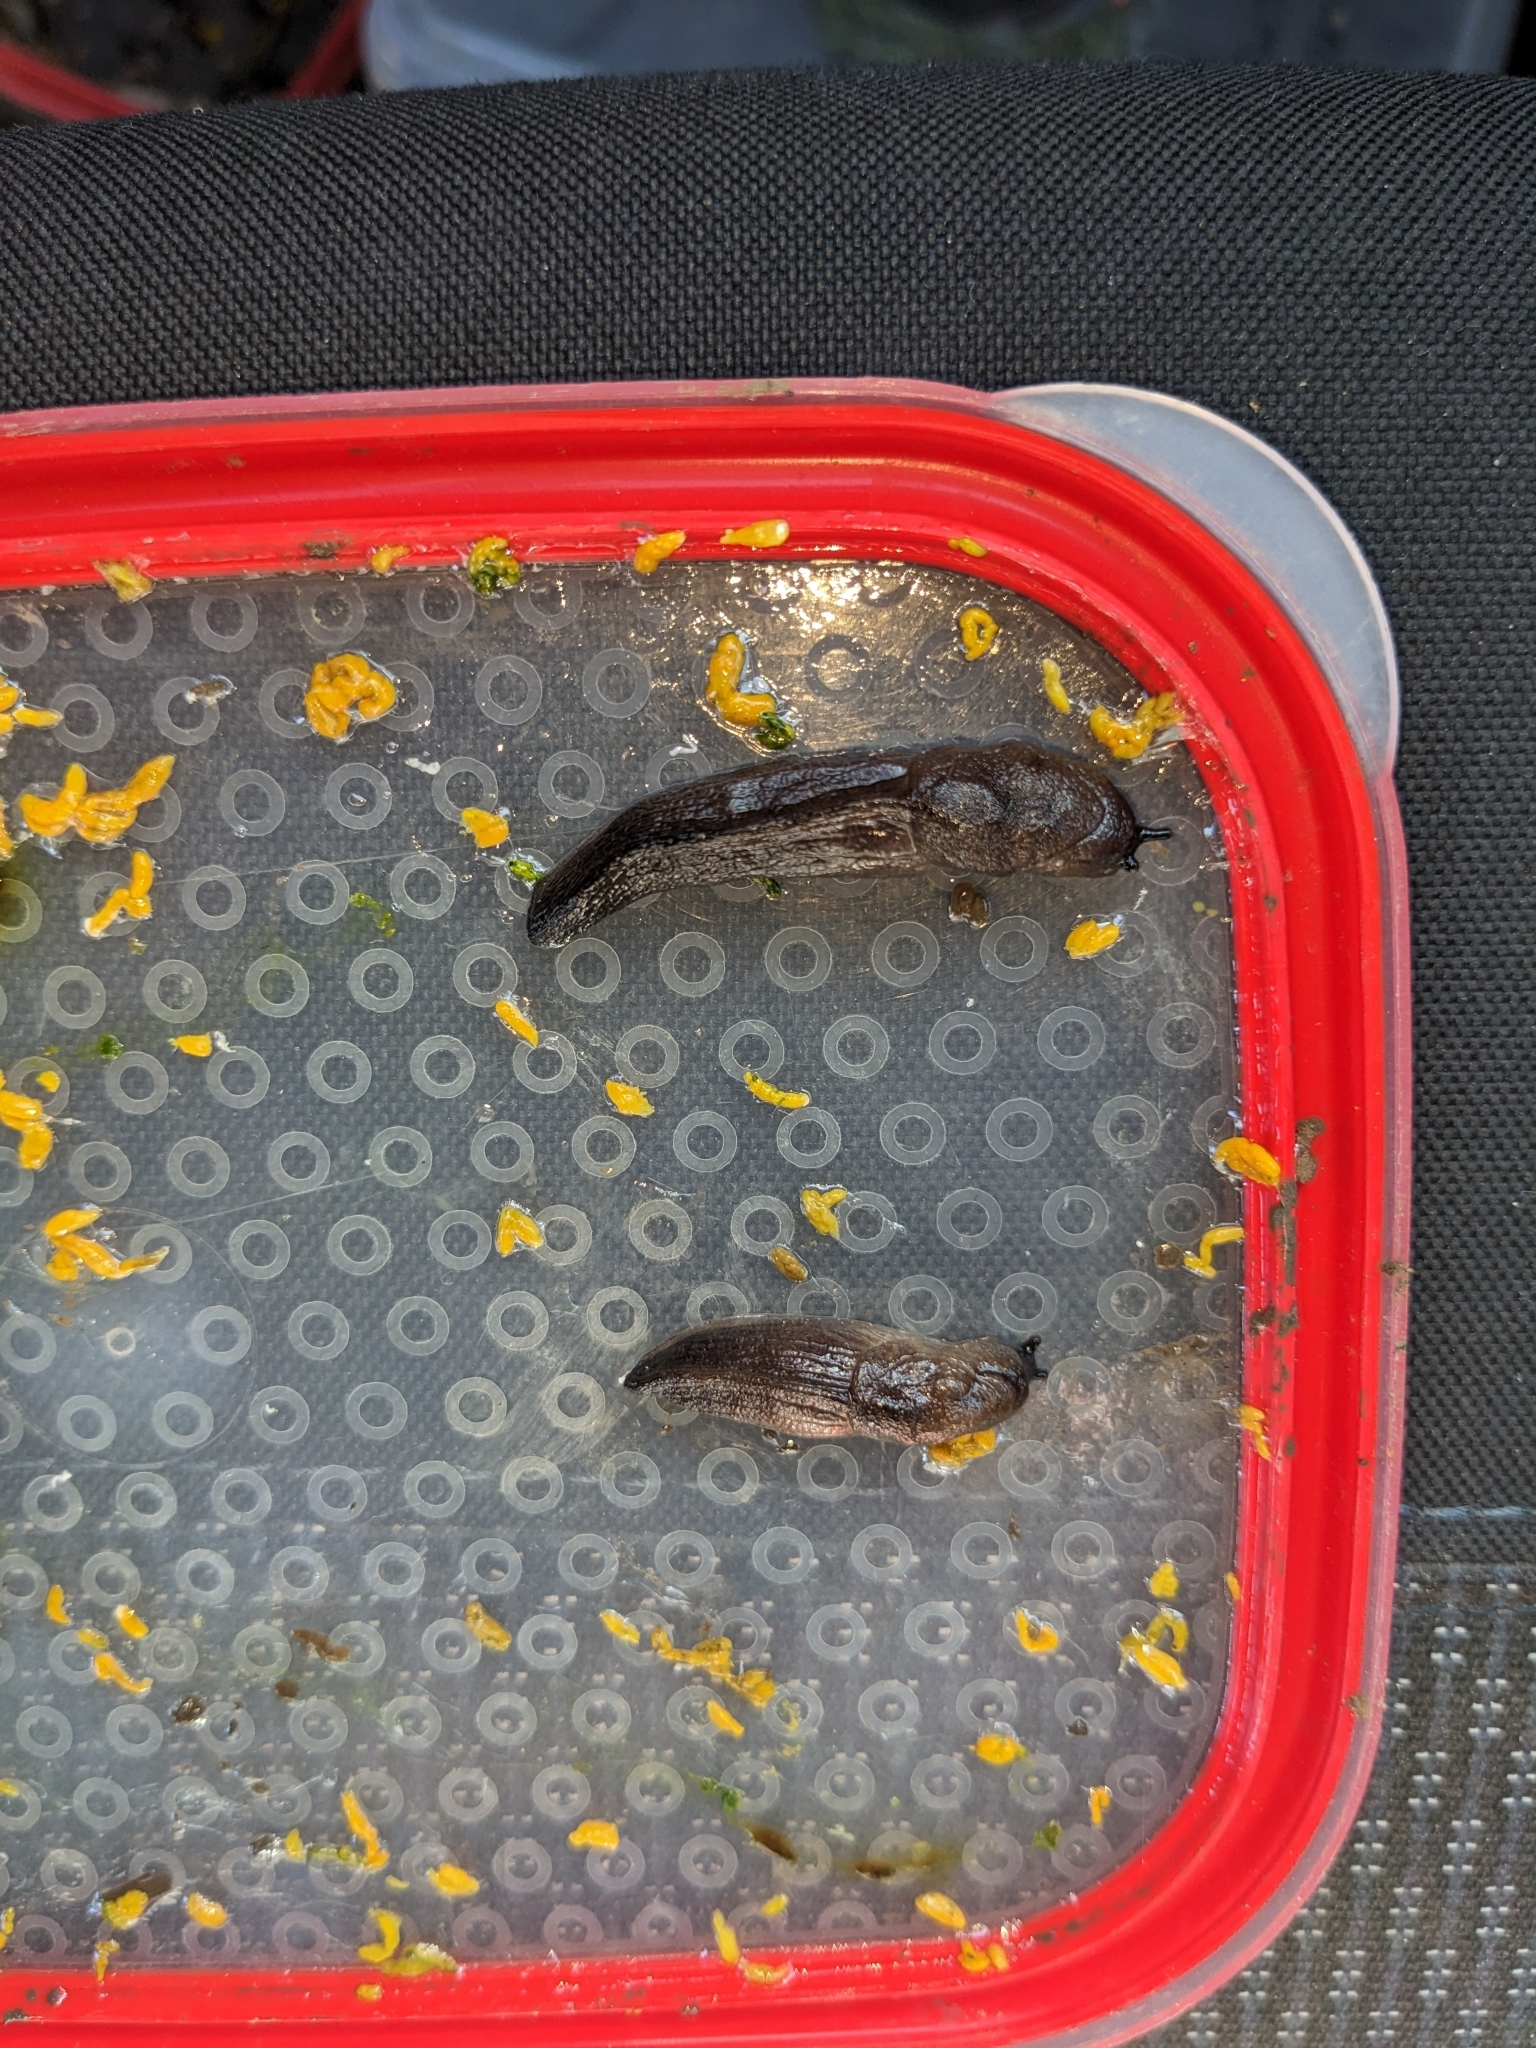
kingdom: Animalia
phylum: Mollusca
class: Gastropoda
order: Stylommatophora
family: Milacidae
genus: Milax
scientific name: Milax gagates
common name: Greenhouse slug
